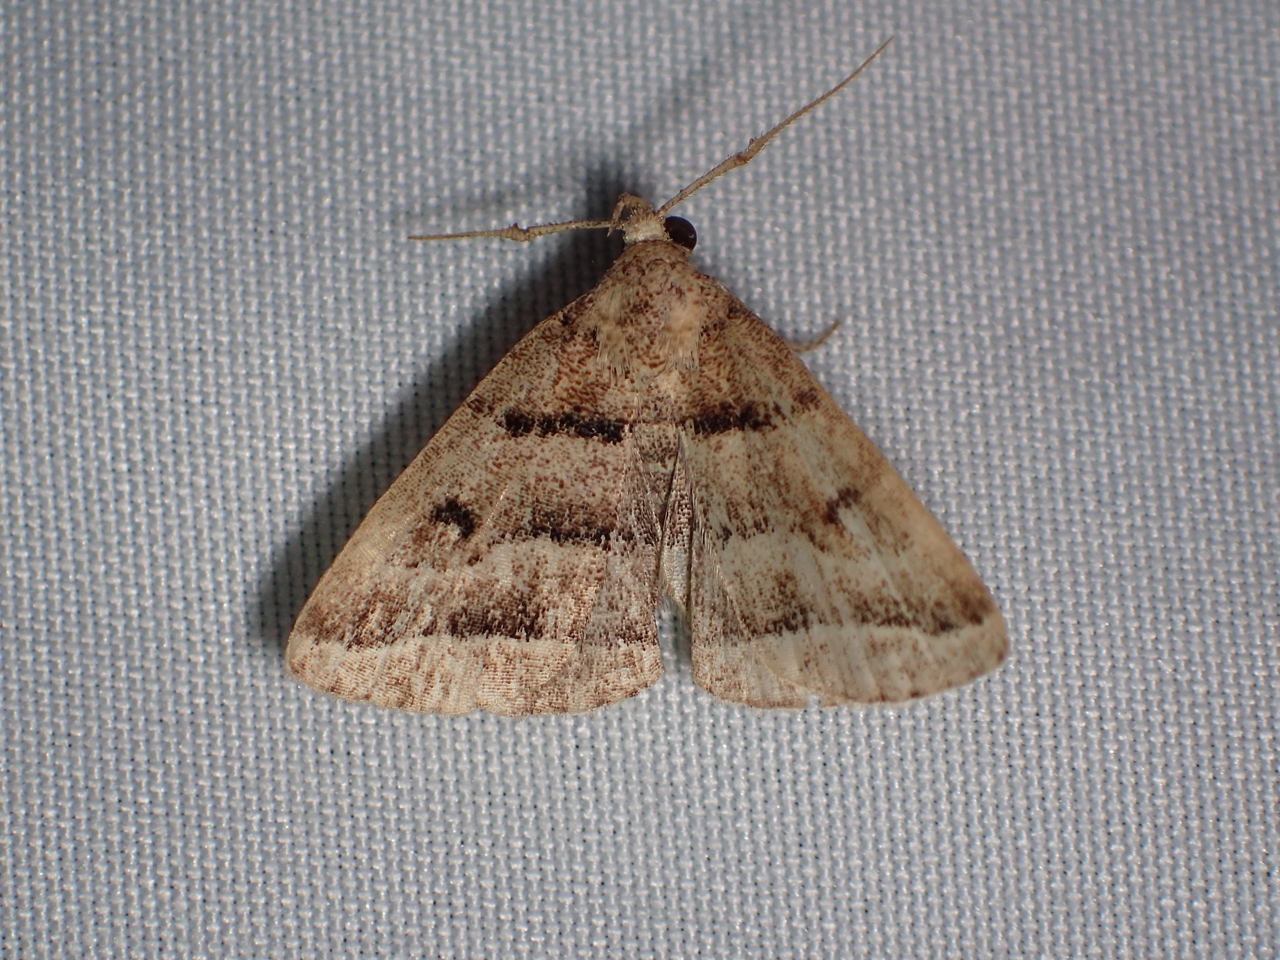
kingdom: Animalia
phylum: Arthropoda
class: Insecta
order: Lepidoptera
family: Erebidae
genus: Zanclognatha
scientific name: Zanclognatha atrilineella
